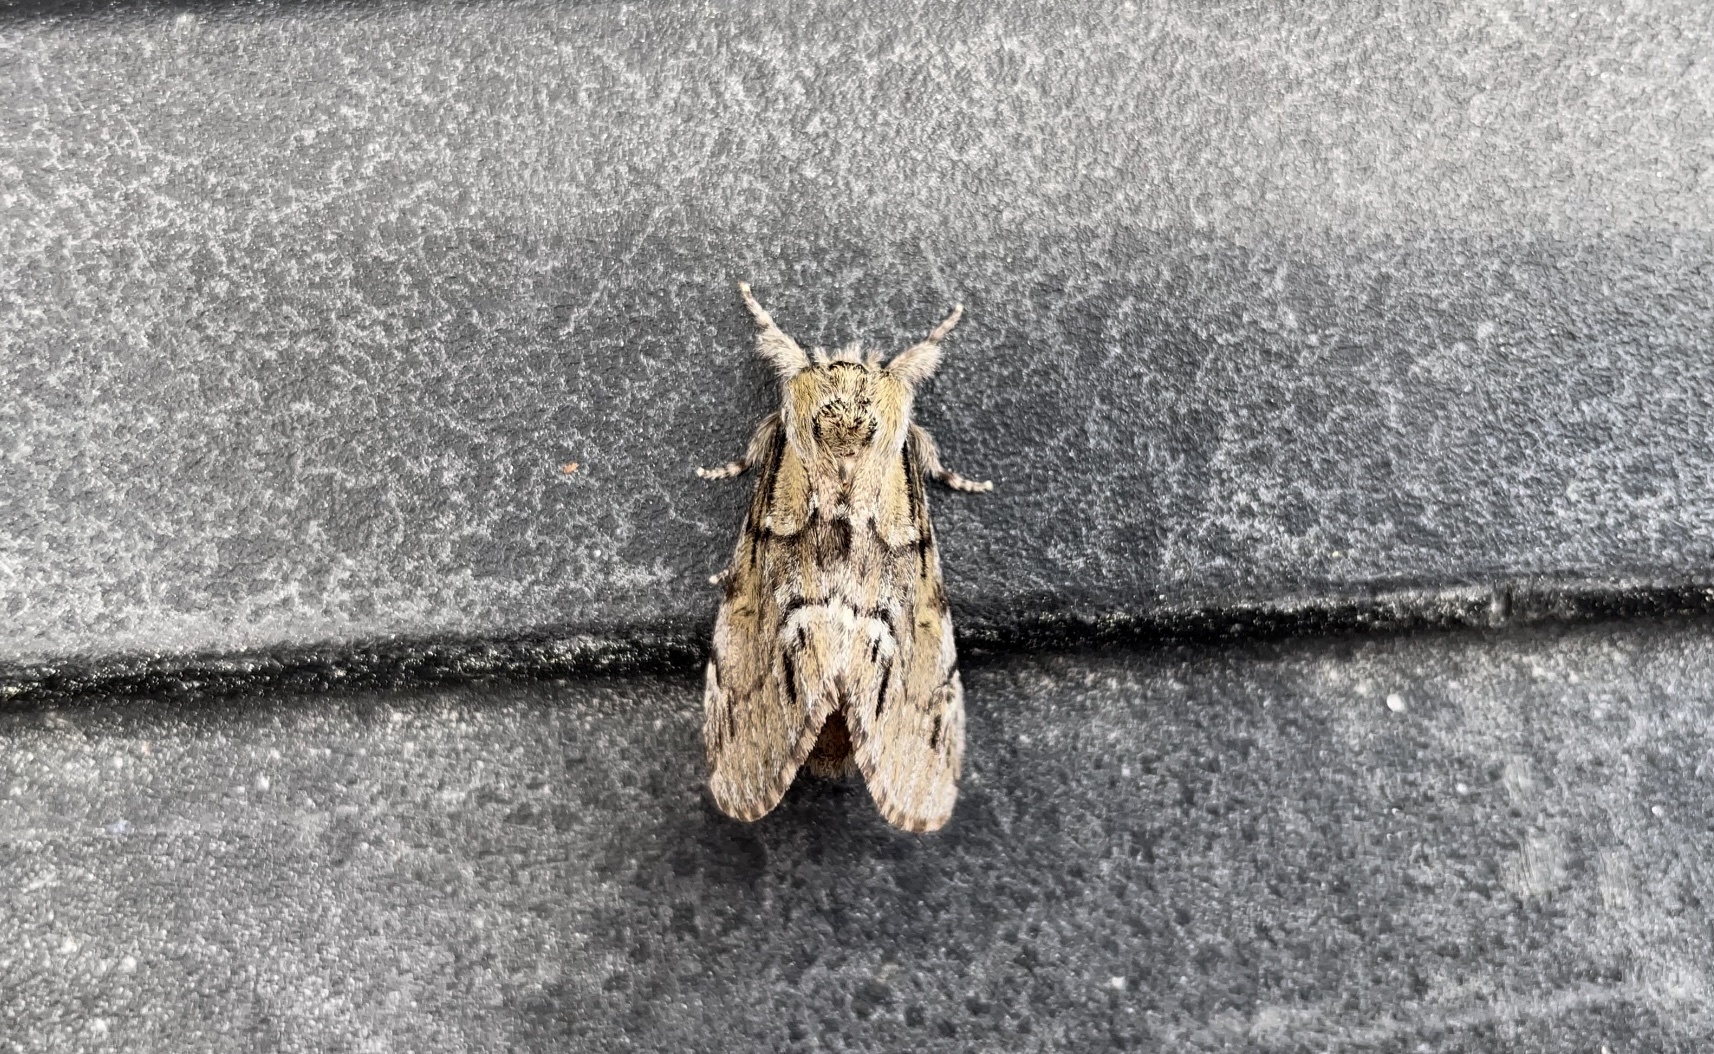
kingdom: Animalia
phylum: Arthropoda
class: Insecta
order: Lepidoptera
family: Notodontidae
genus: Paraeschra
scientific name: Paraeschra georgica
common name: Georgian prominent
